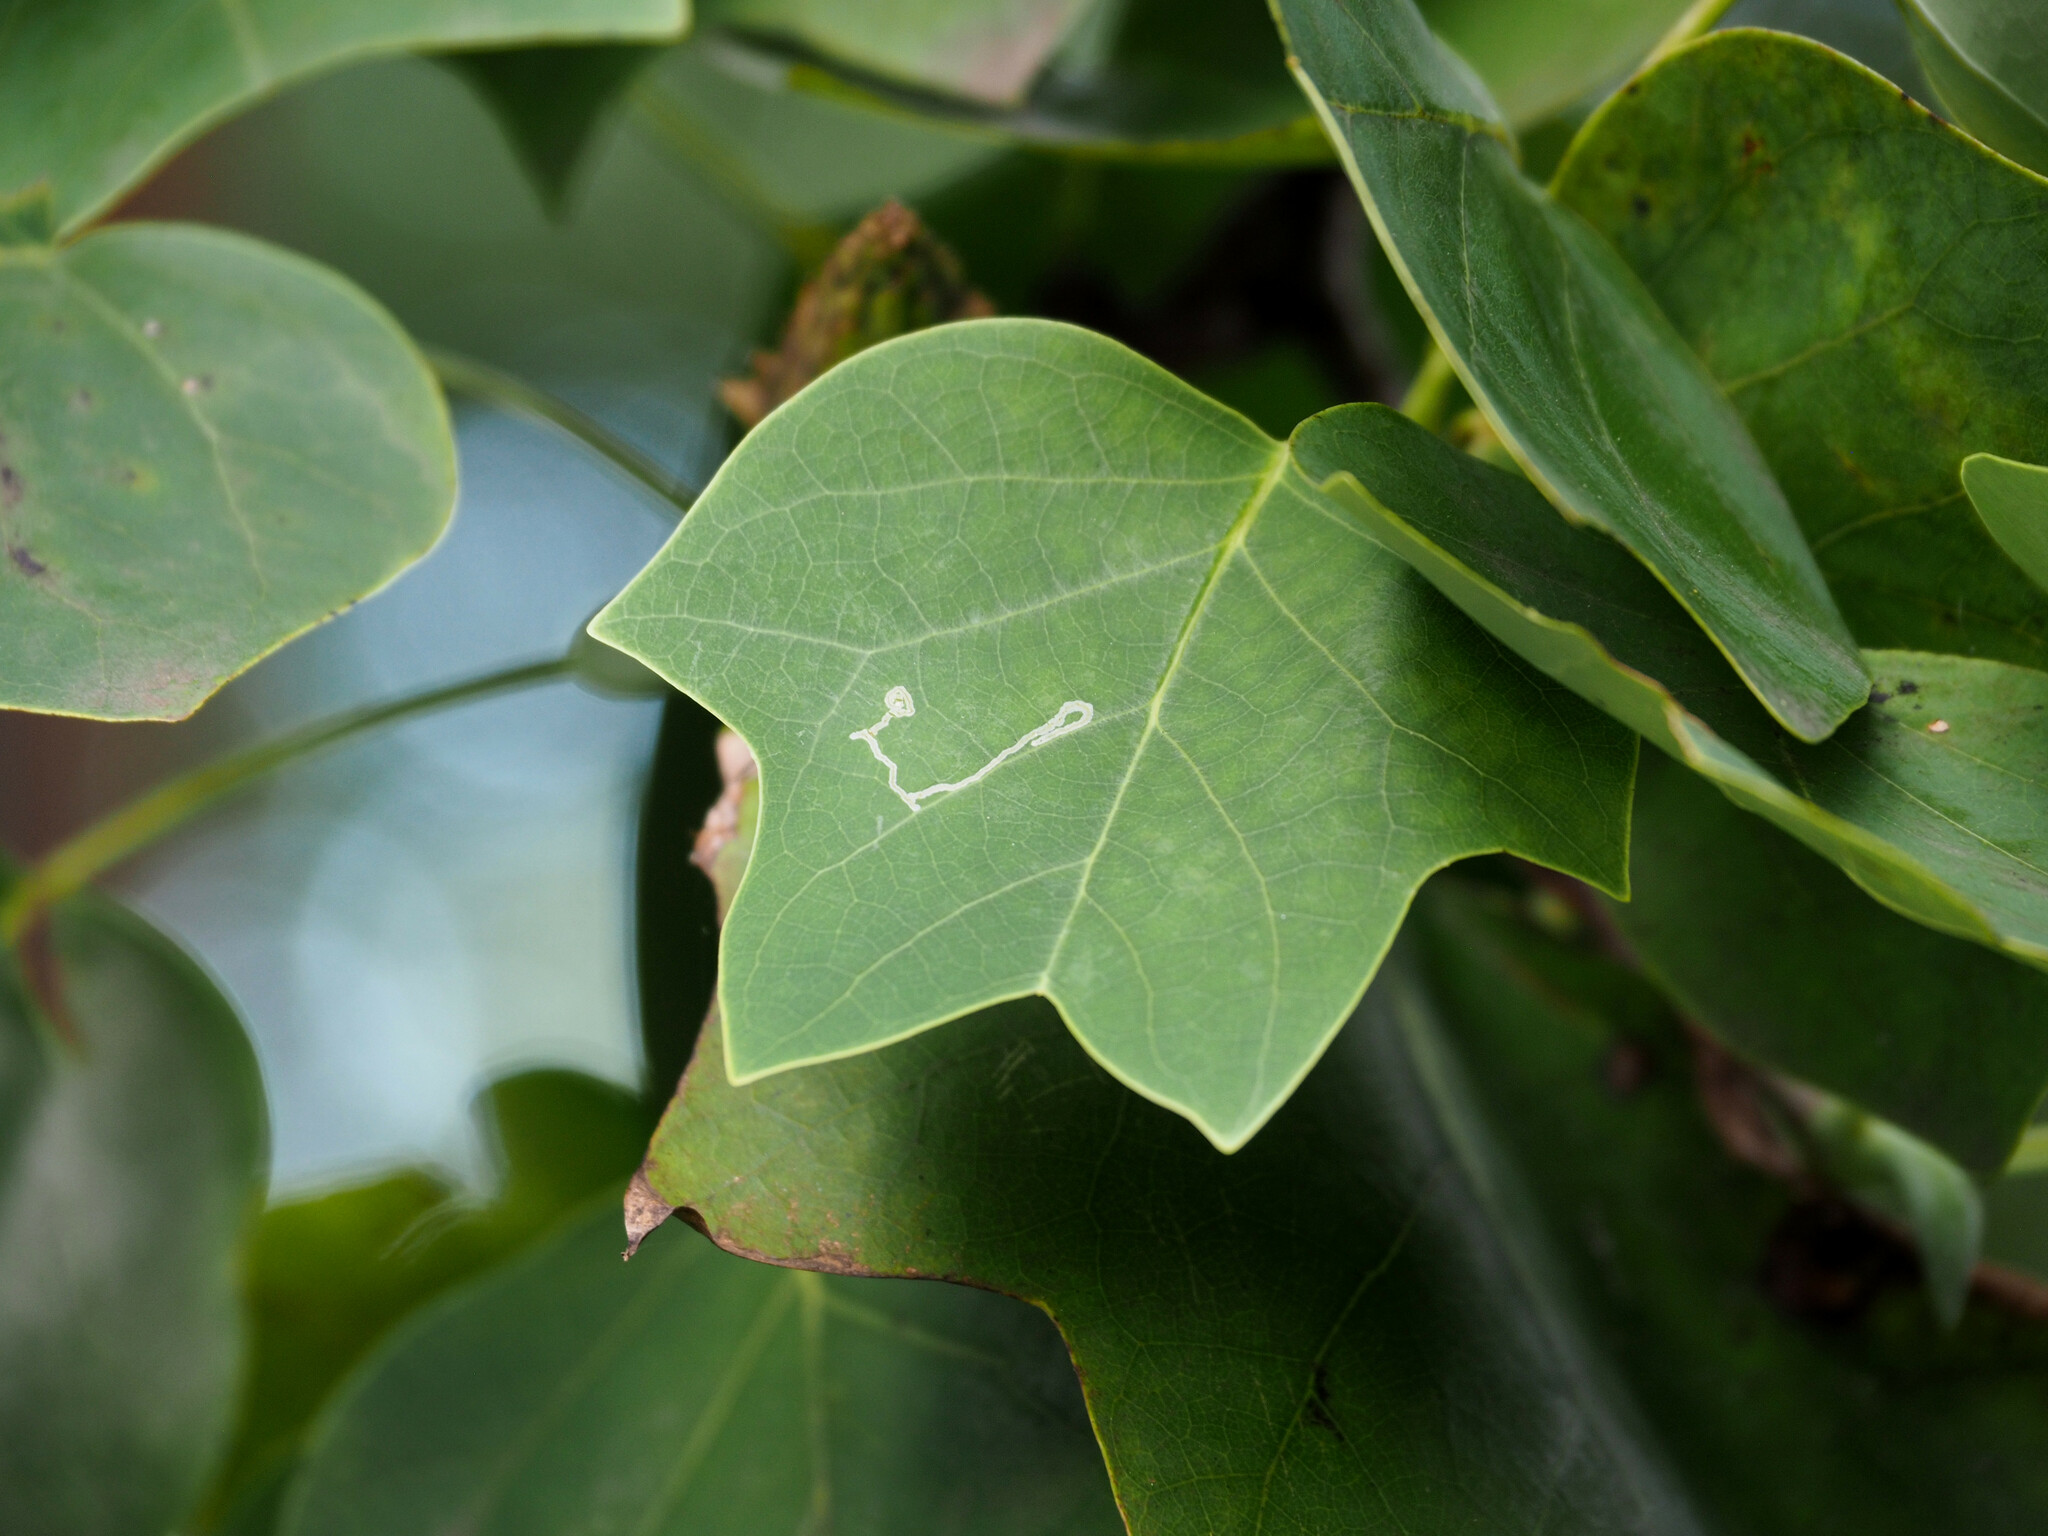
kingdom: Animalia
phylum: Arthropoda
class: Insecta
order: Lepidoptera
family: Gracillariidae
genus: Phyllocnistis
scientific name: Phyllocnistis liriodendronella
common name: Tulip tree leaf miner
